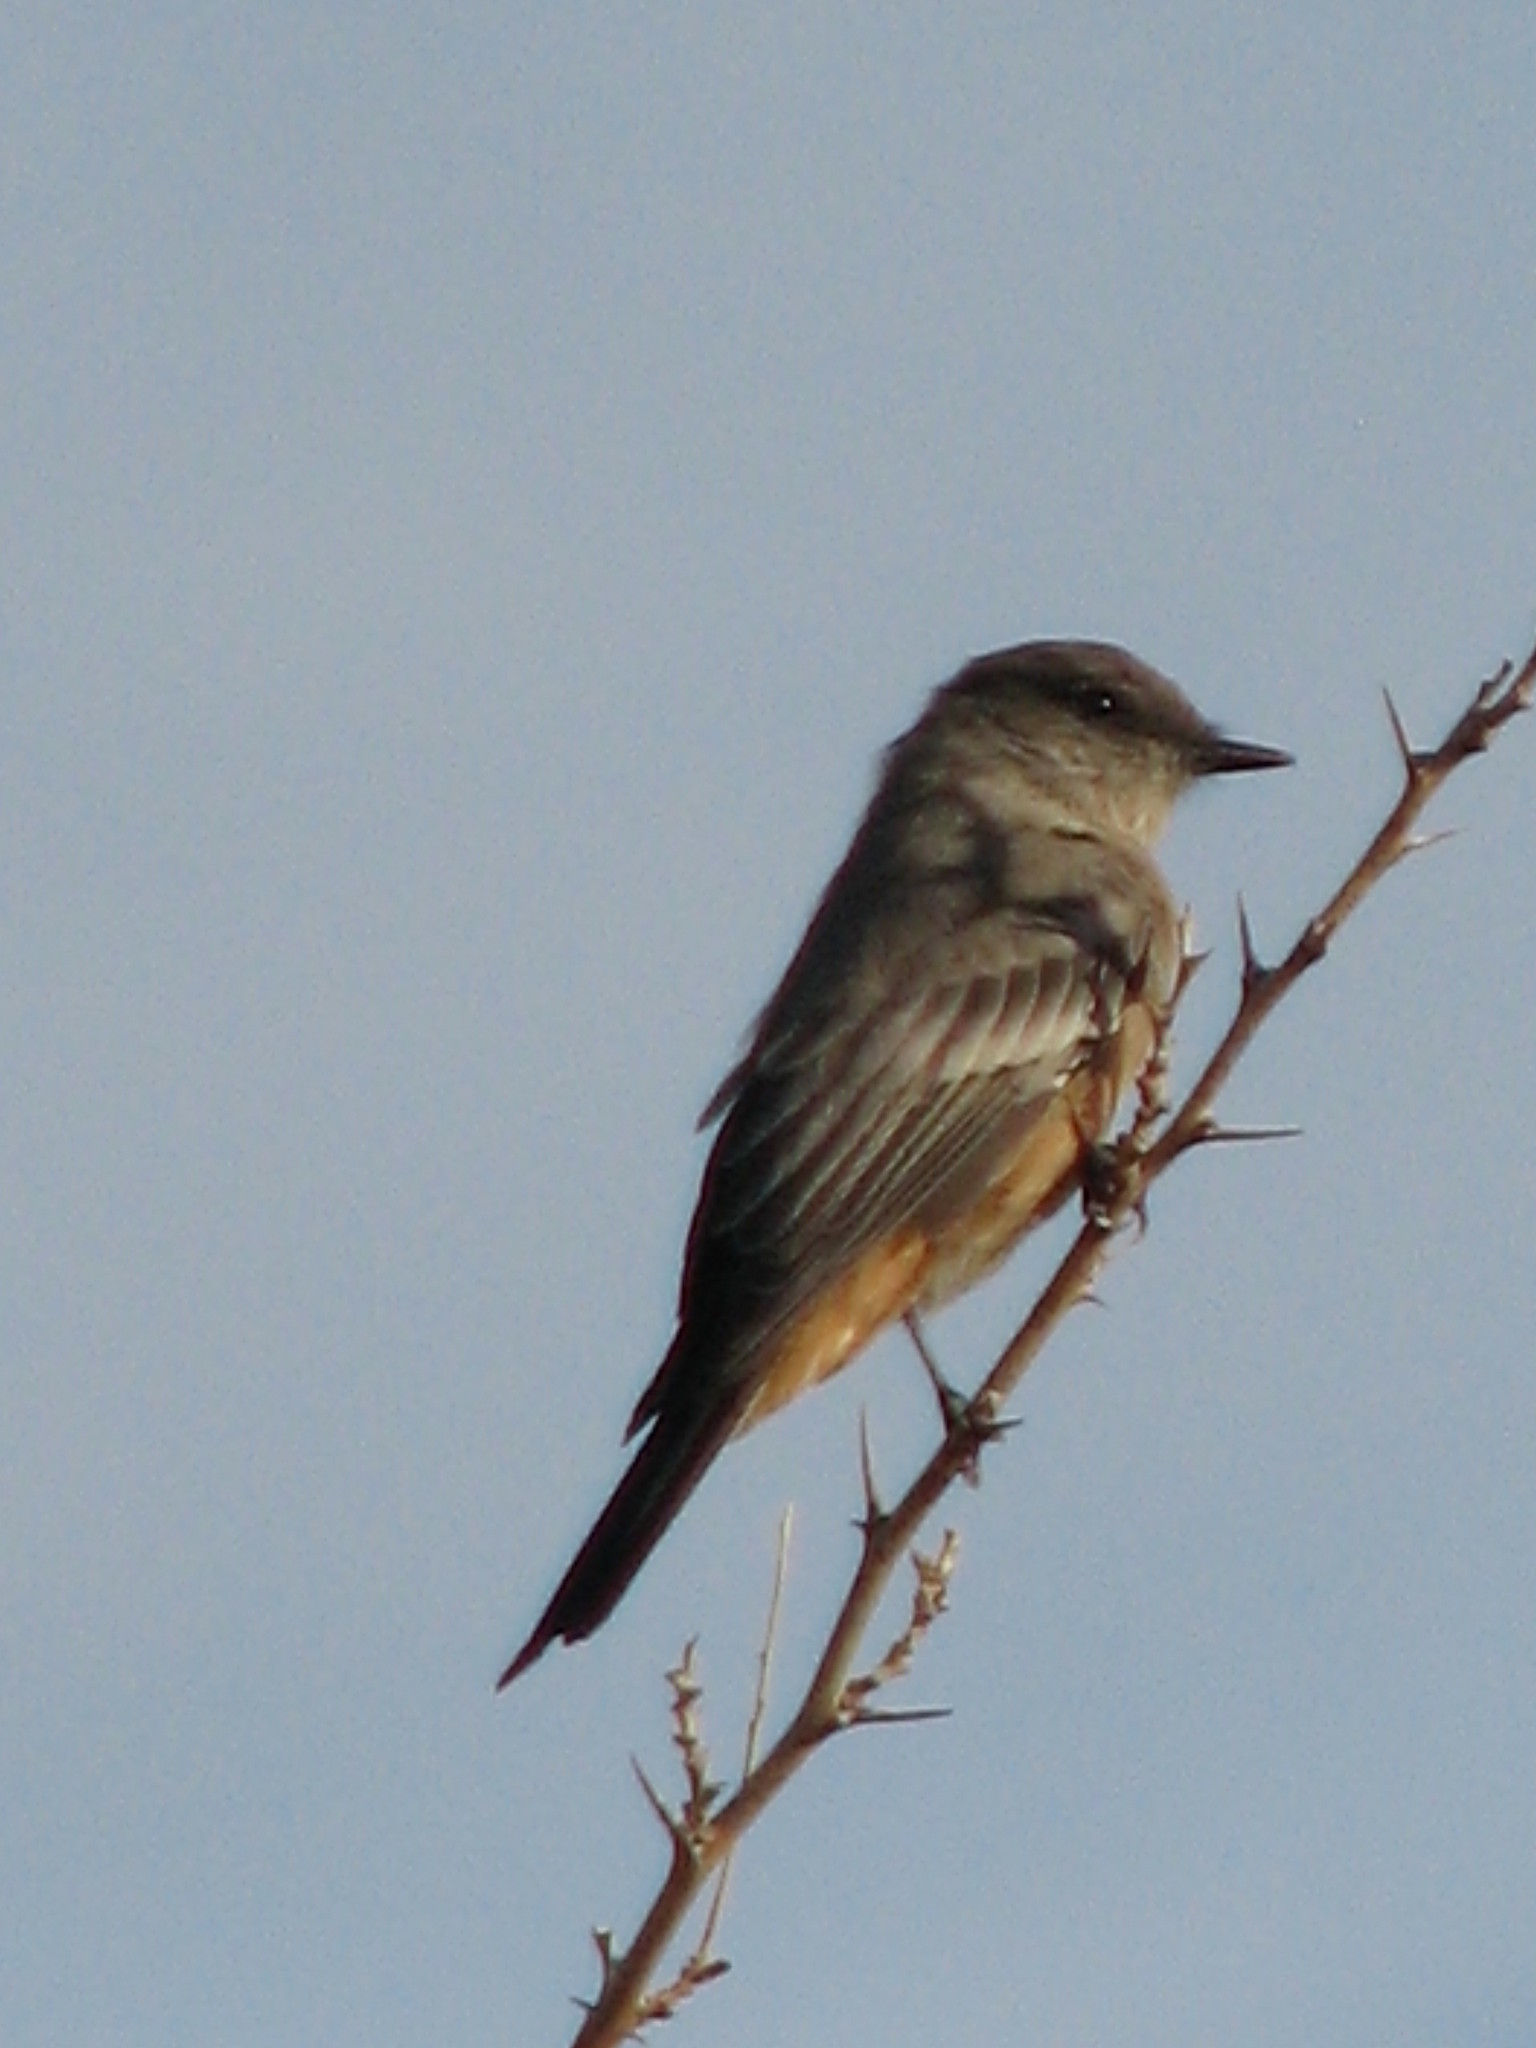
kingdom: Animalia
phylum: Chordata
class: Aves
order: Passeriformes
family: Tyrannidae
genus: Sayornis
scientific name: Sayornis saya
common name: Say's phoebe
